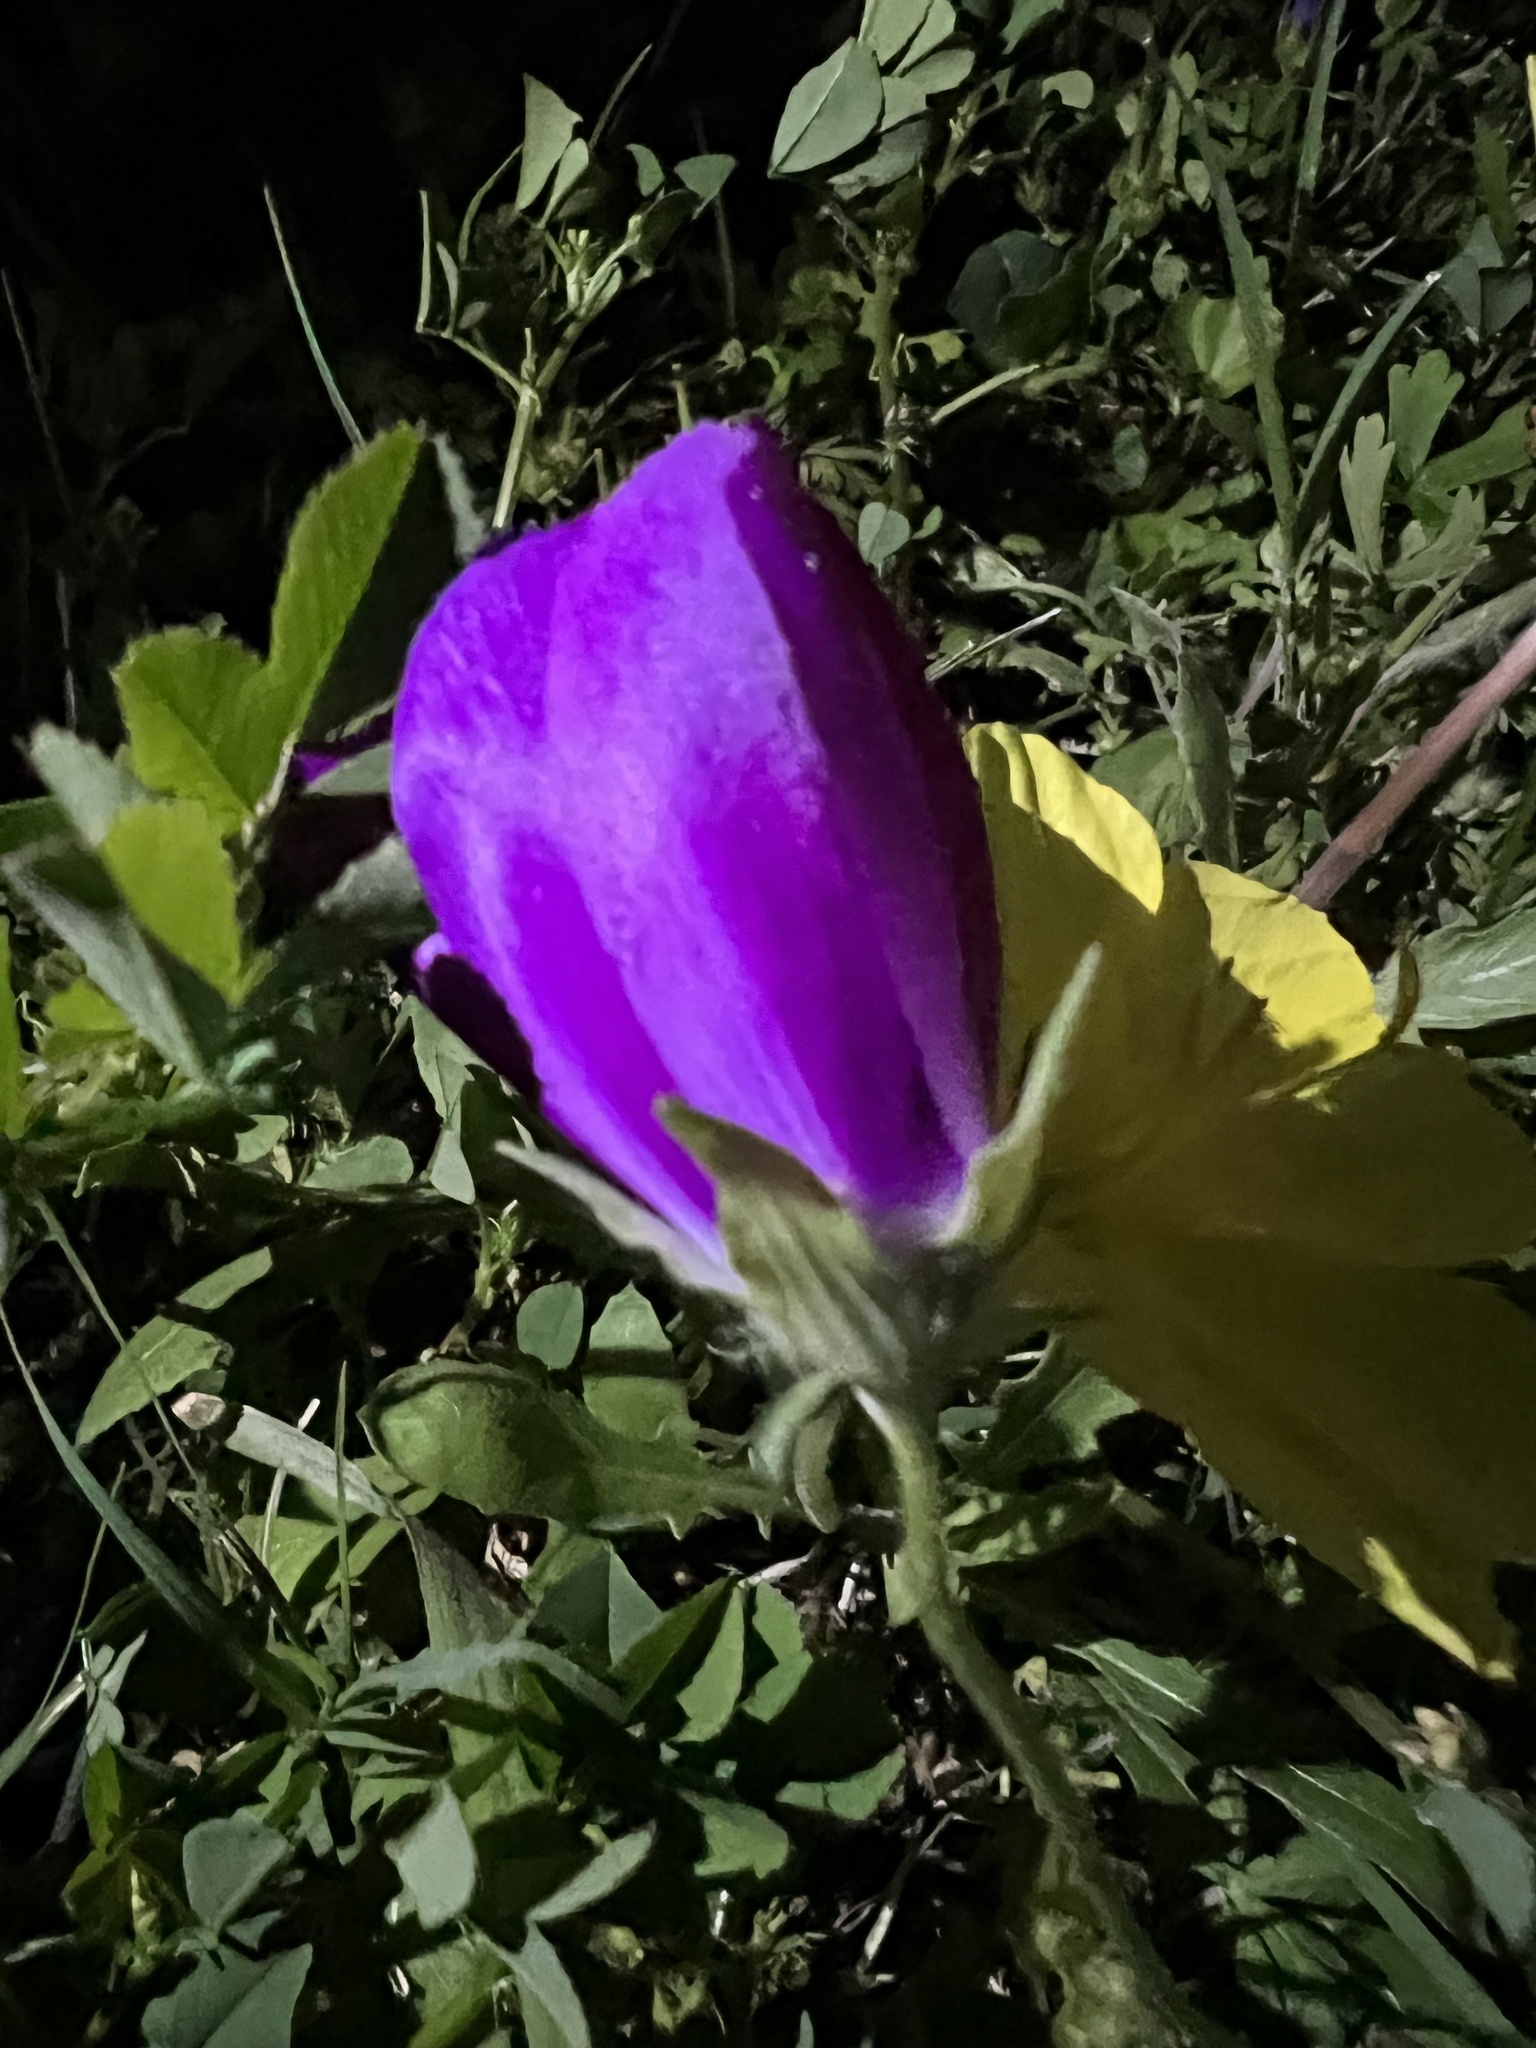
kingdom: Plantae
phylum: Tracheophyta
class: Magnoliopsida
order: Malvales
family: Malvaceae
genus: Callirhoe
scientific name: Callirhoe involucrata
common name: Purple poppy-mallow
